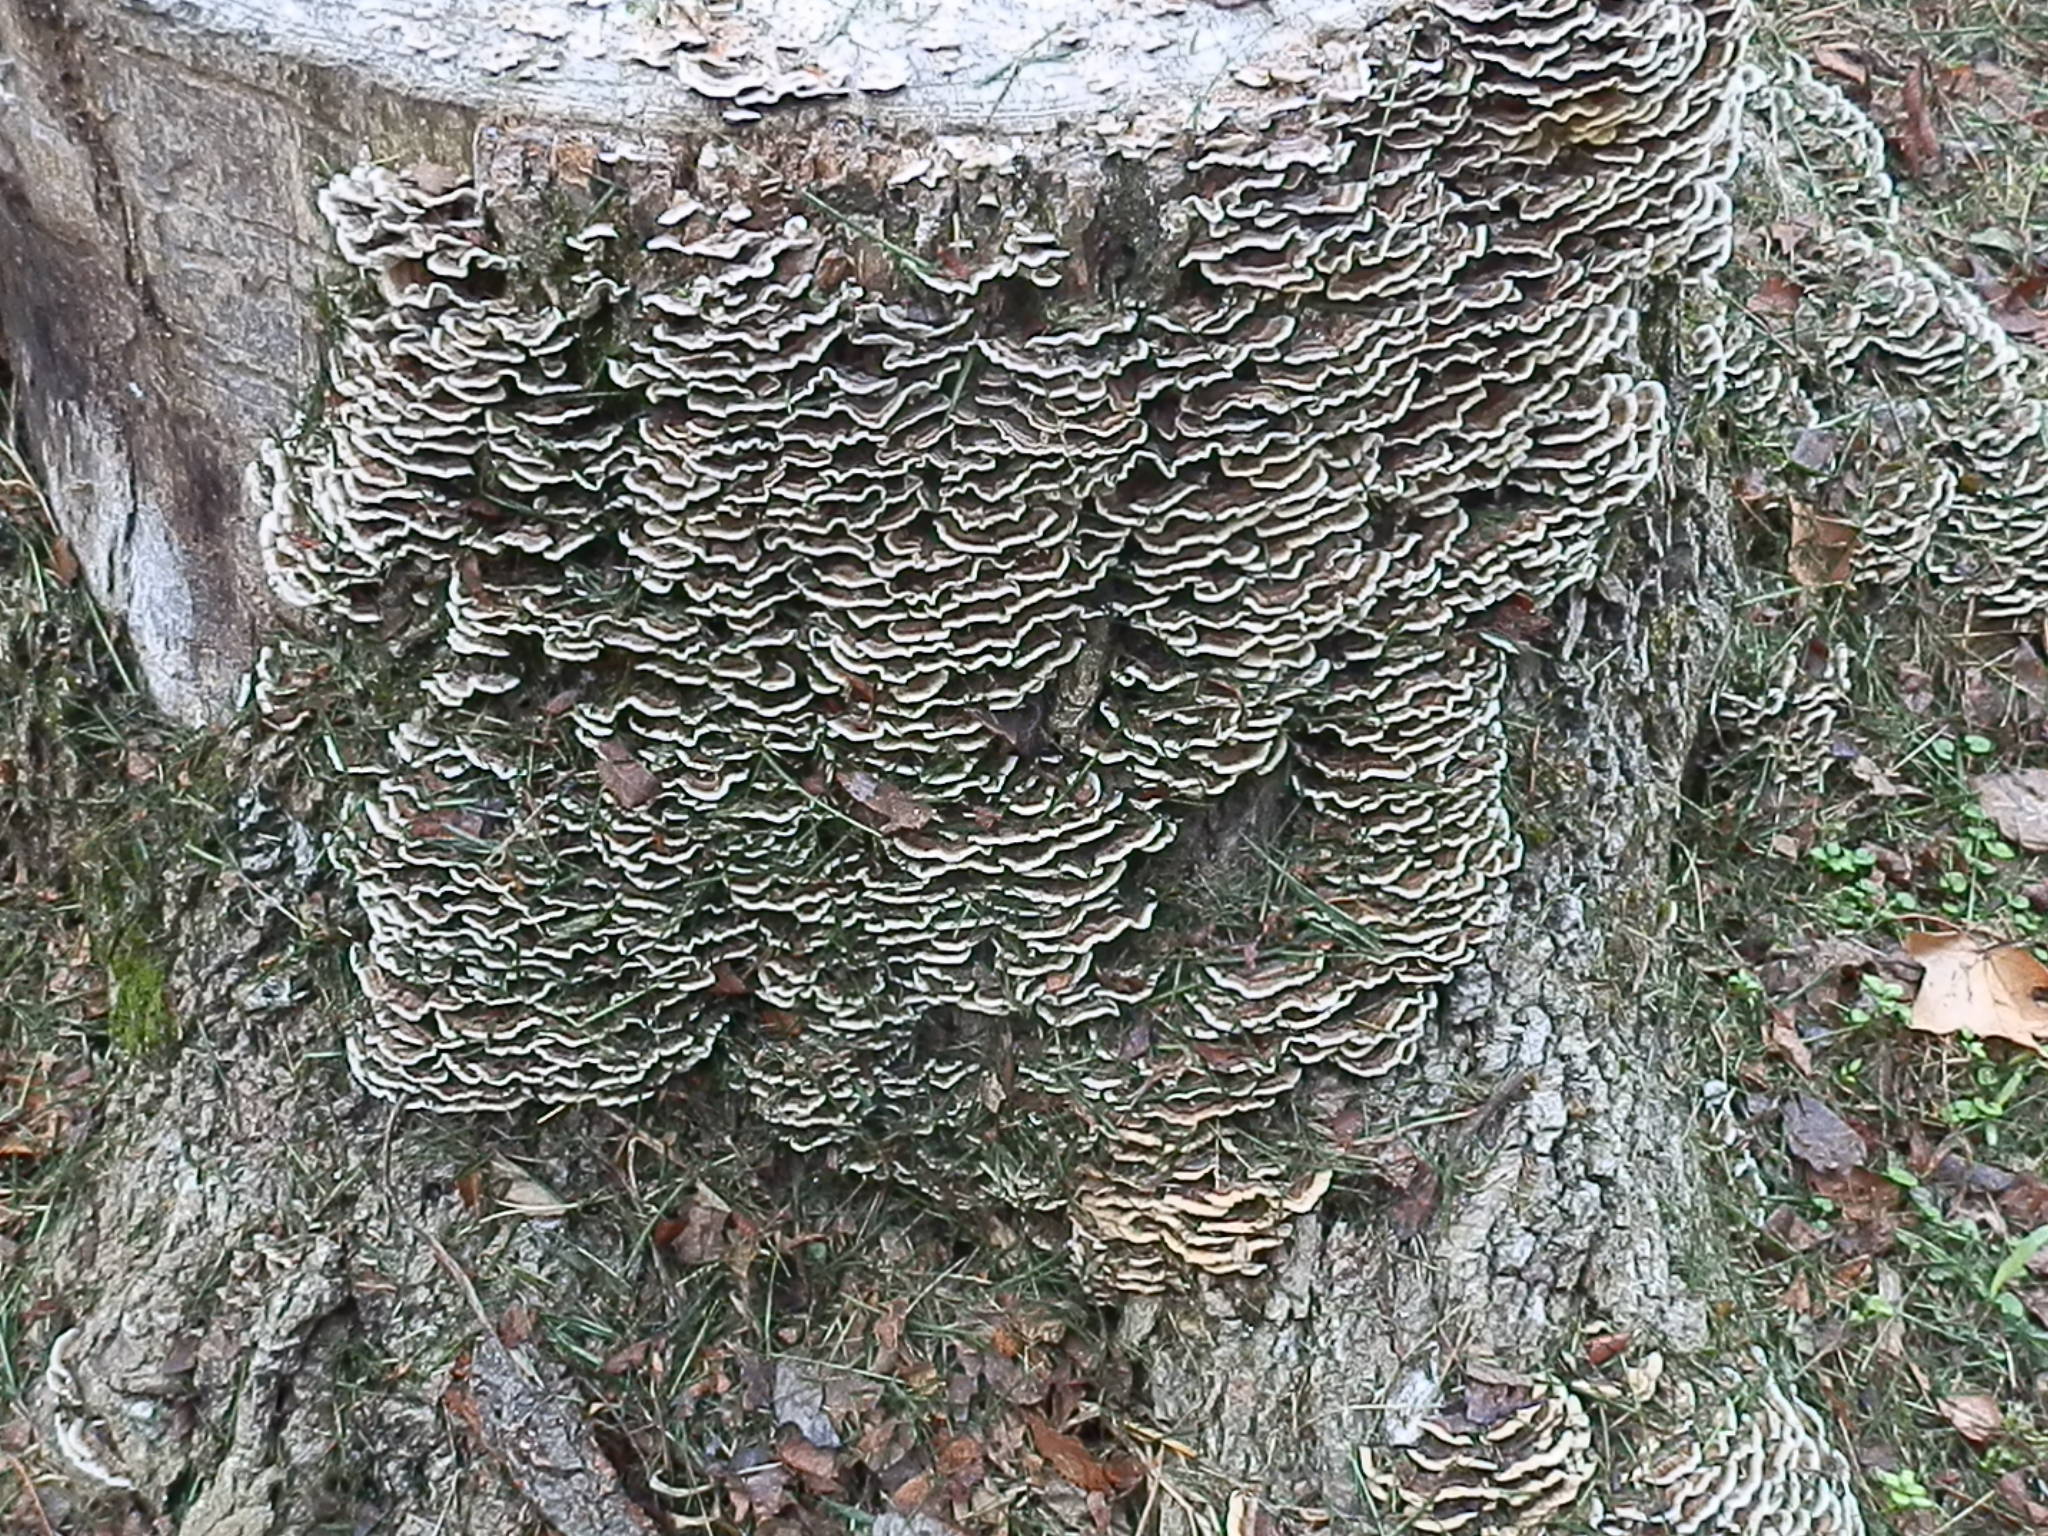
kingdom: Fungi
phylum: Basidiomycota
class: Agaricomycetes
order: Polyporales
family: Polyporaceae
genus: Trametes
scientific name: Trametes versicolor
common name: Turkeytail
